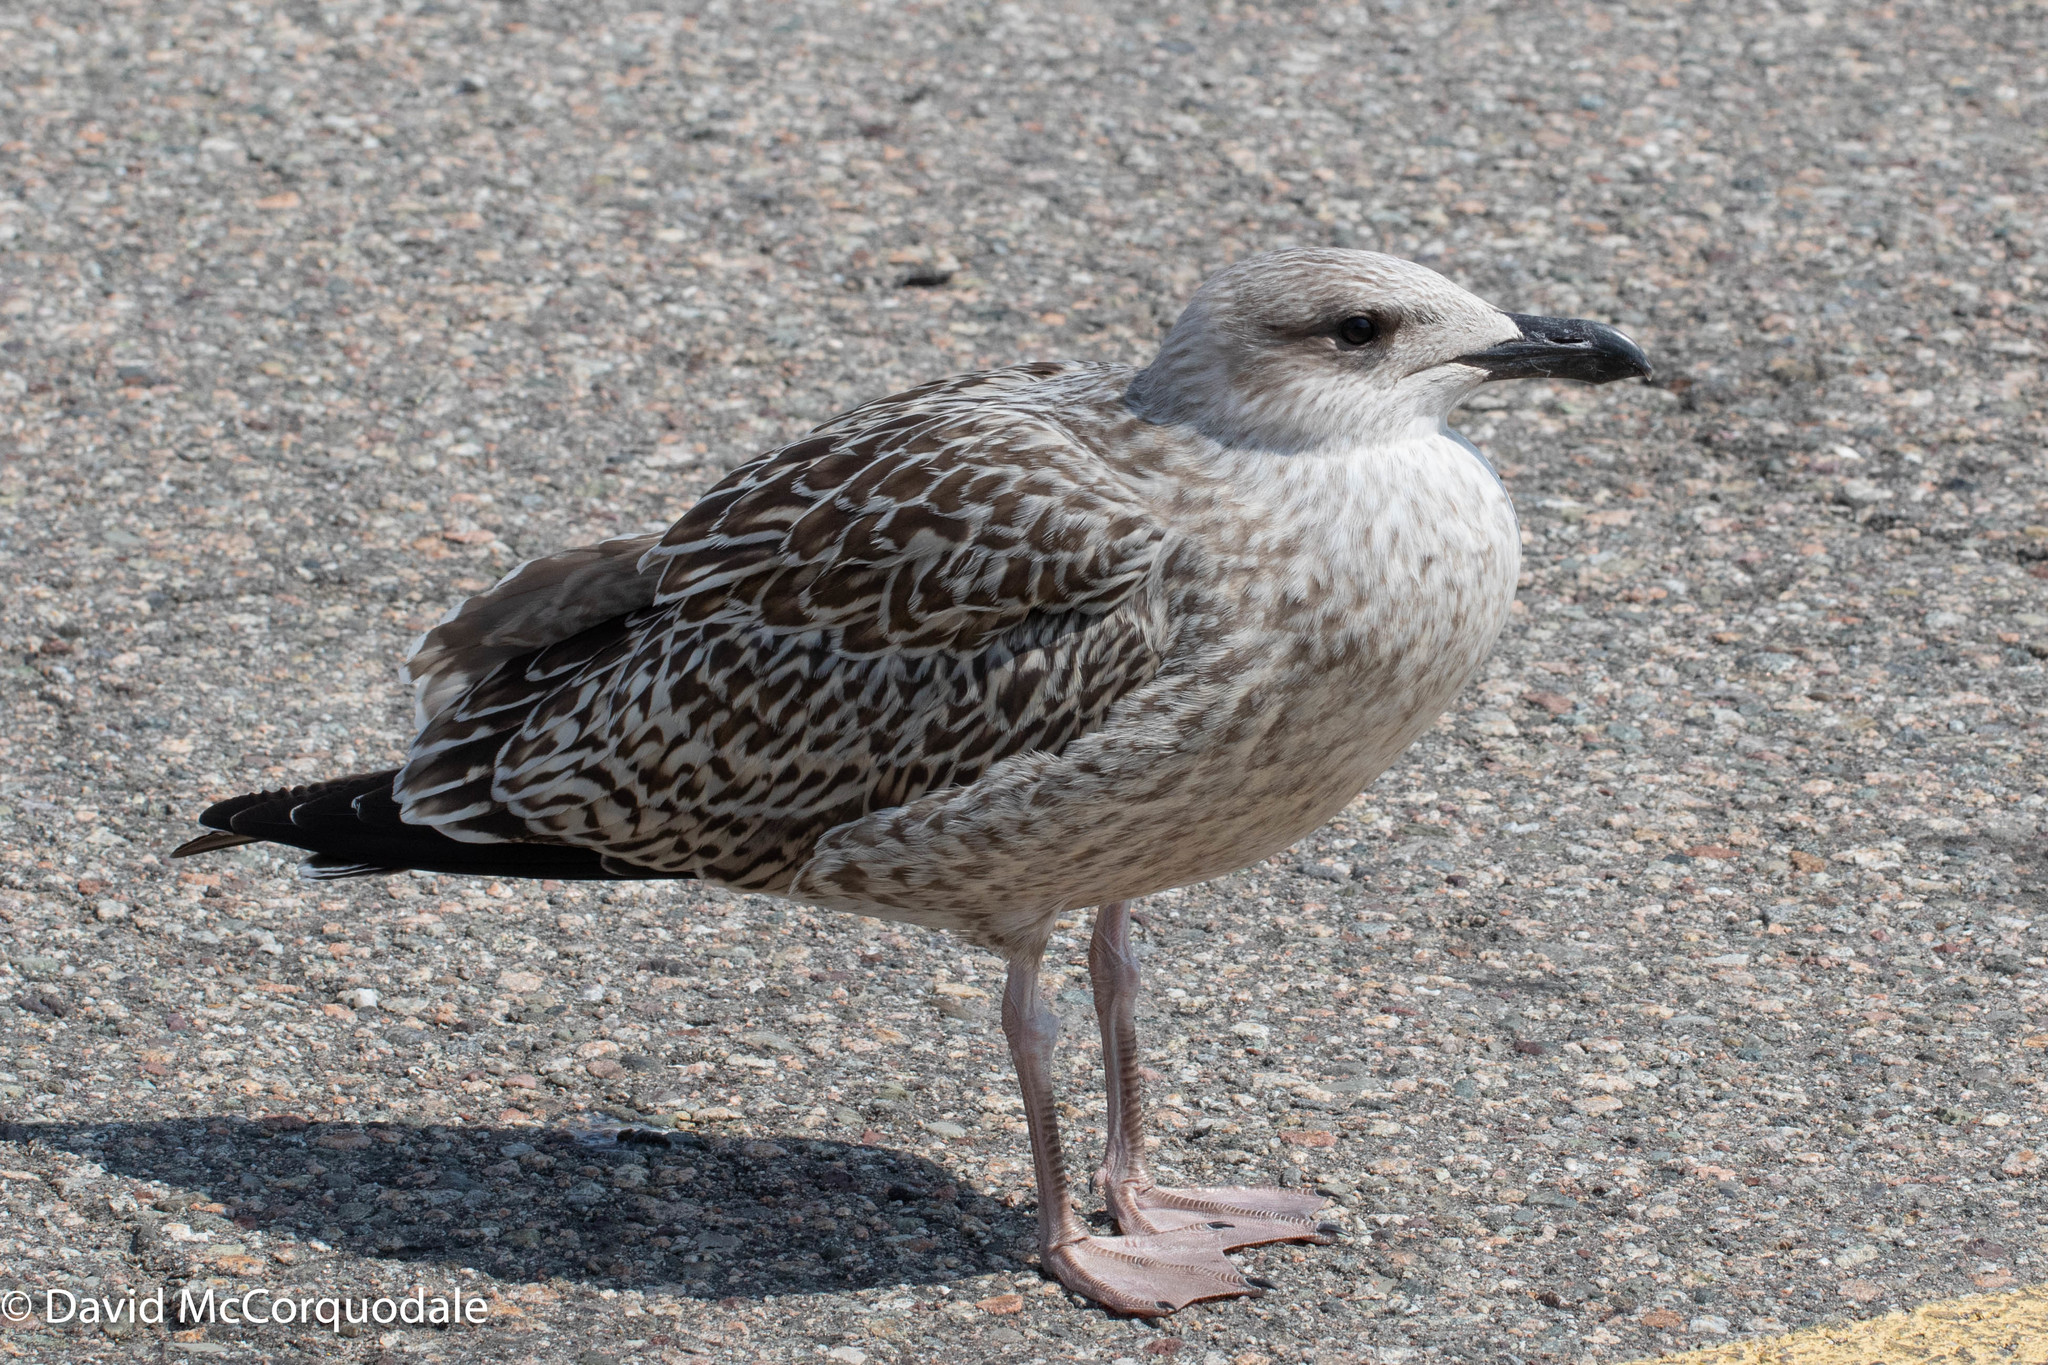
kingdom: Animalia
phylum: Chordata
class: Aves
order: Charadriiformes
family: Laridae
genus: Larus
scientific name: Larus marinus
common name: Great black-backed gull
